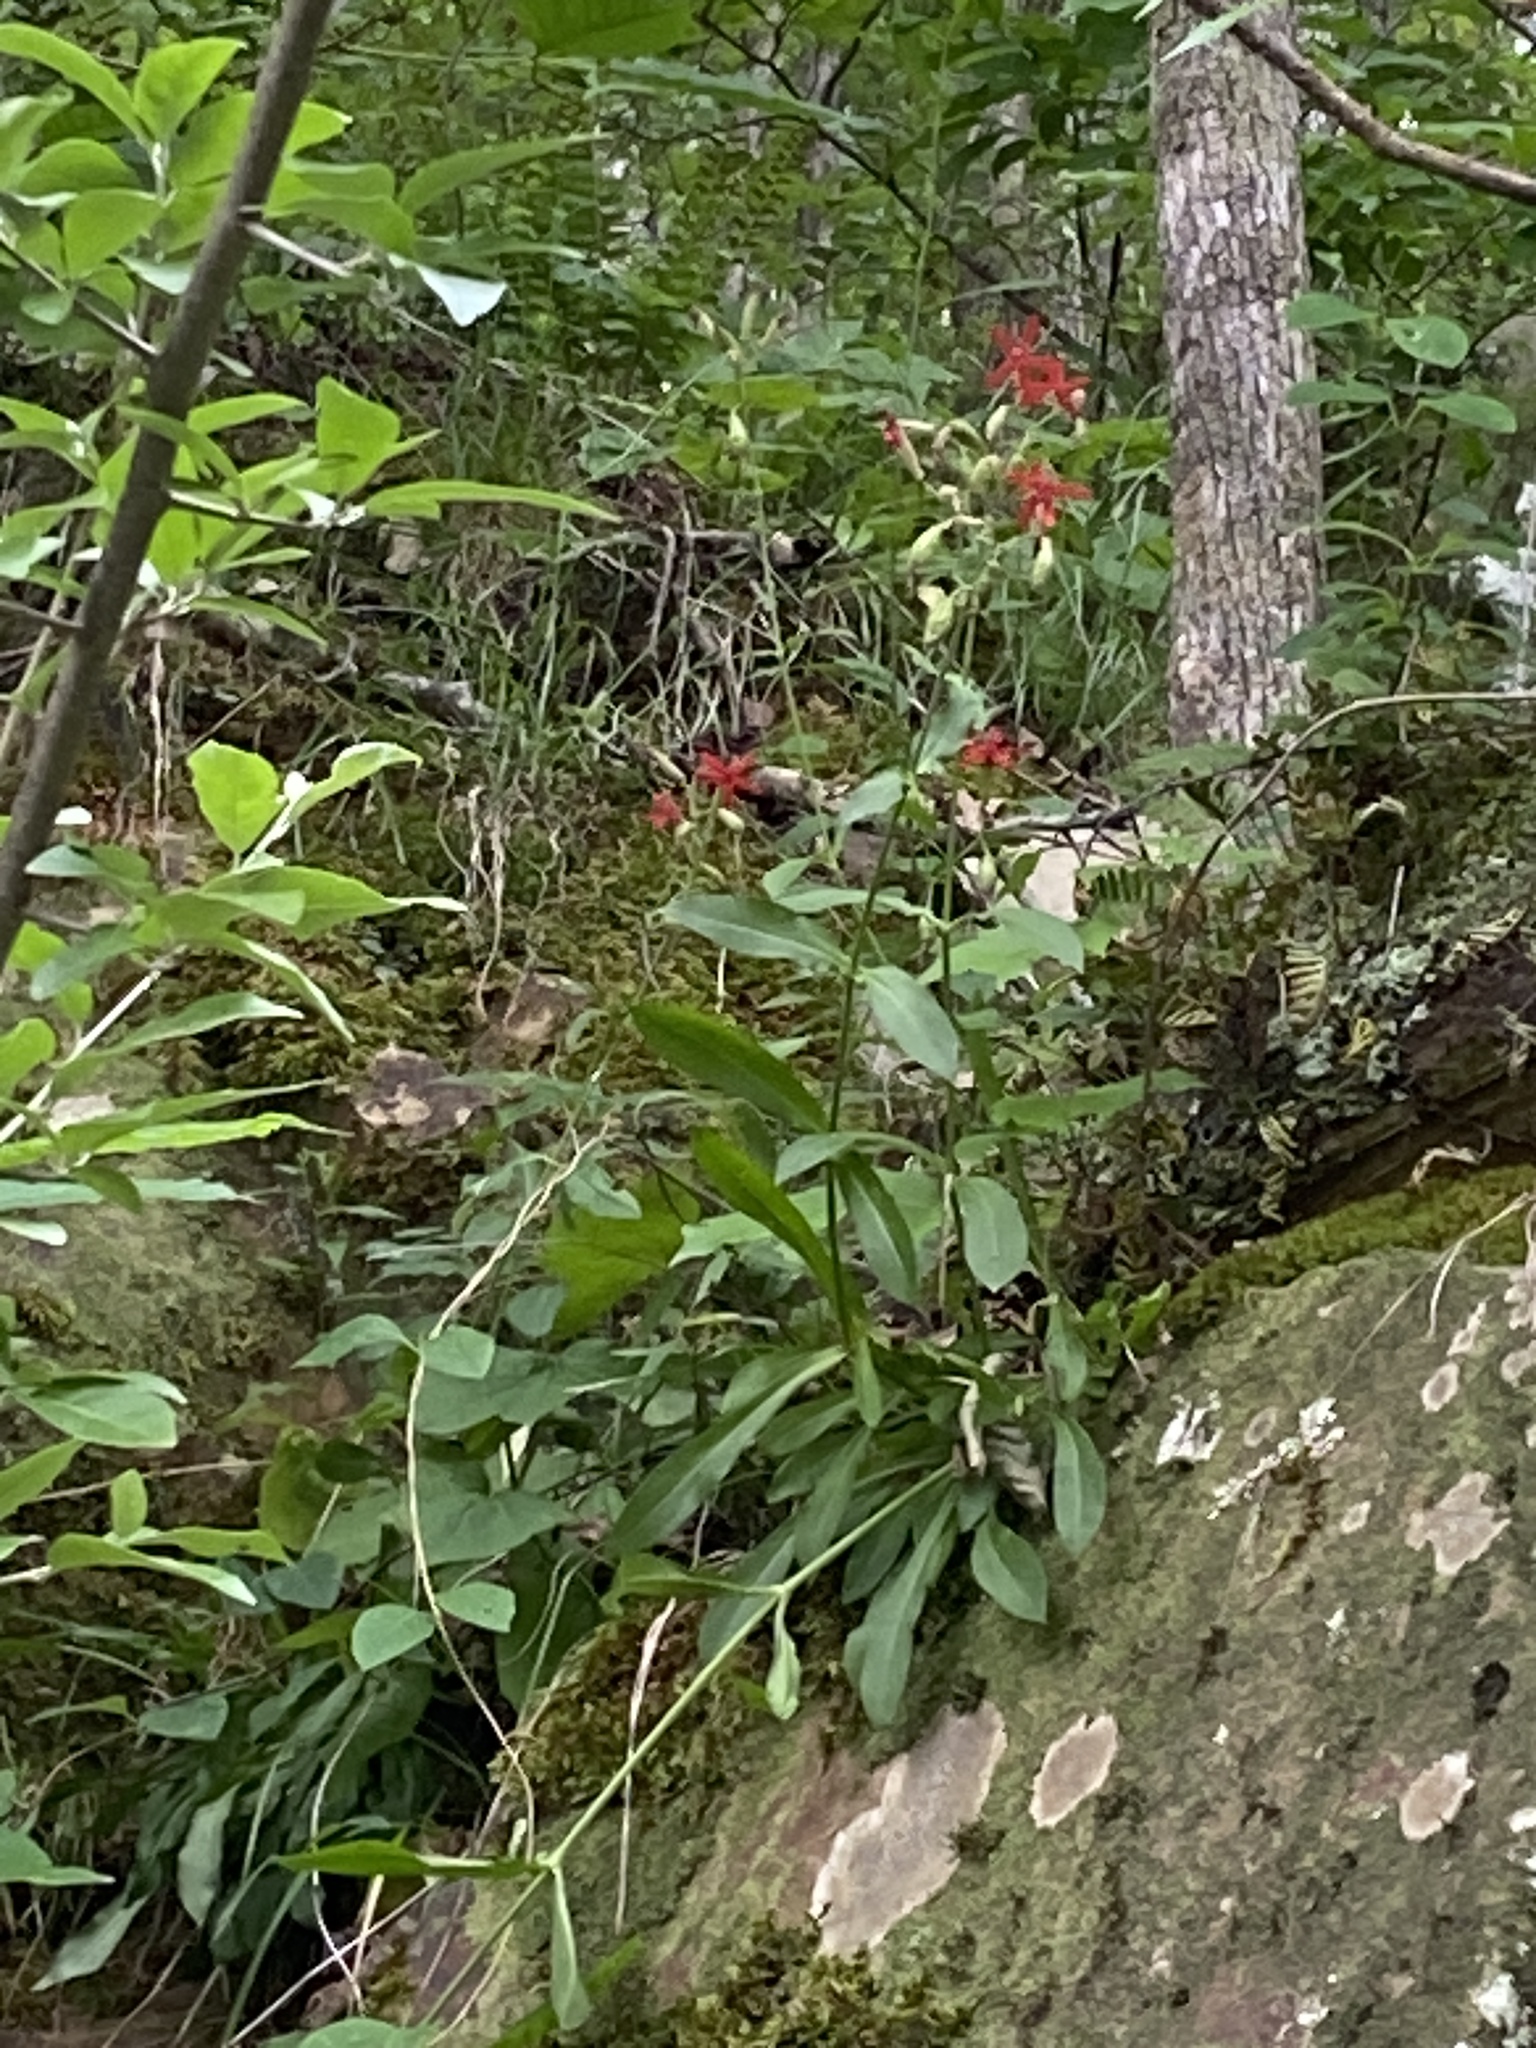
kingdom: Plantae
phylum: Tracheophyta
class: Magnoliopsida
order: Caryophyllales
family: Caryophyllaceae
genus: Silene
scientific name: Silene virginica
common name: Fire-pink
